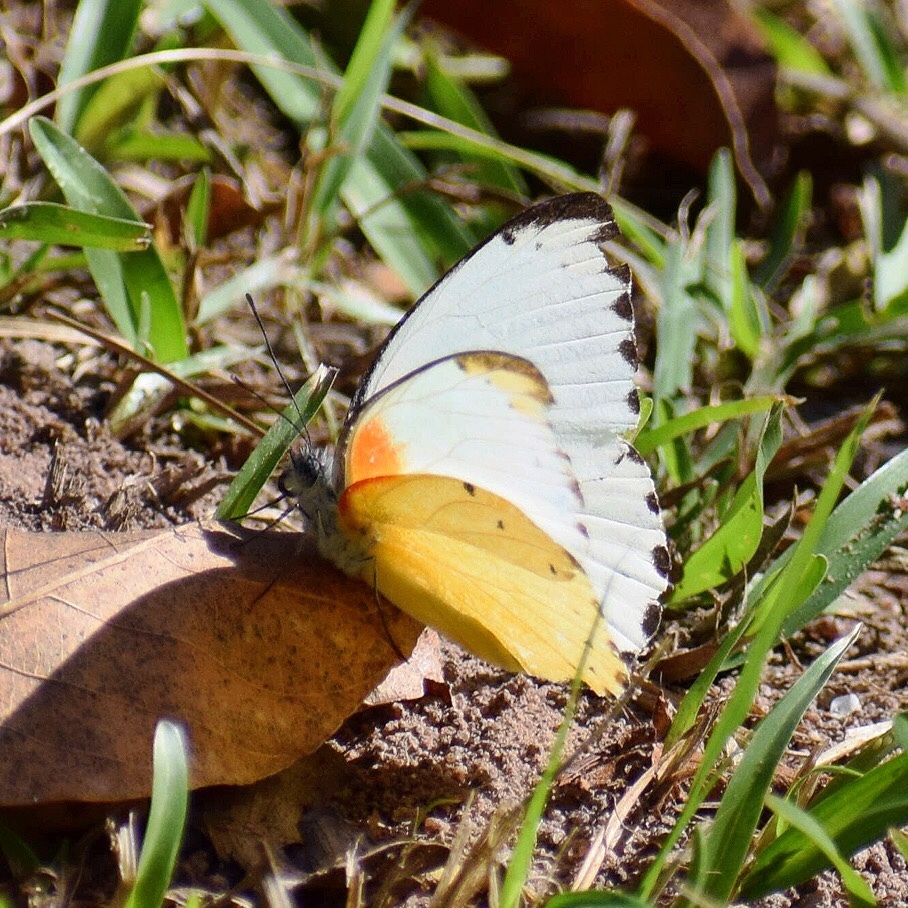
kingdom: Animalia
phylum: Arthropoda
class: Insecta
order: Lepidoptera
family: Pieridae
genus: Belenois
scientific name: Belenois thysa
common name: False dotted border
